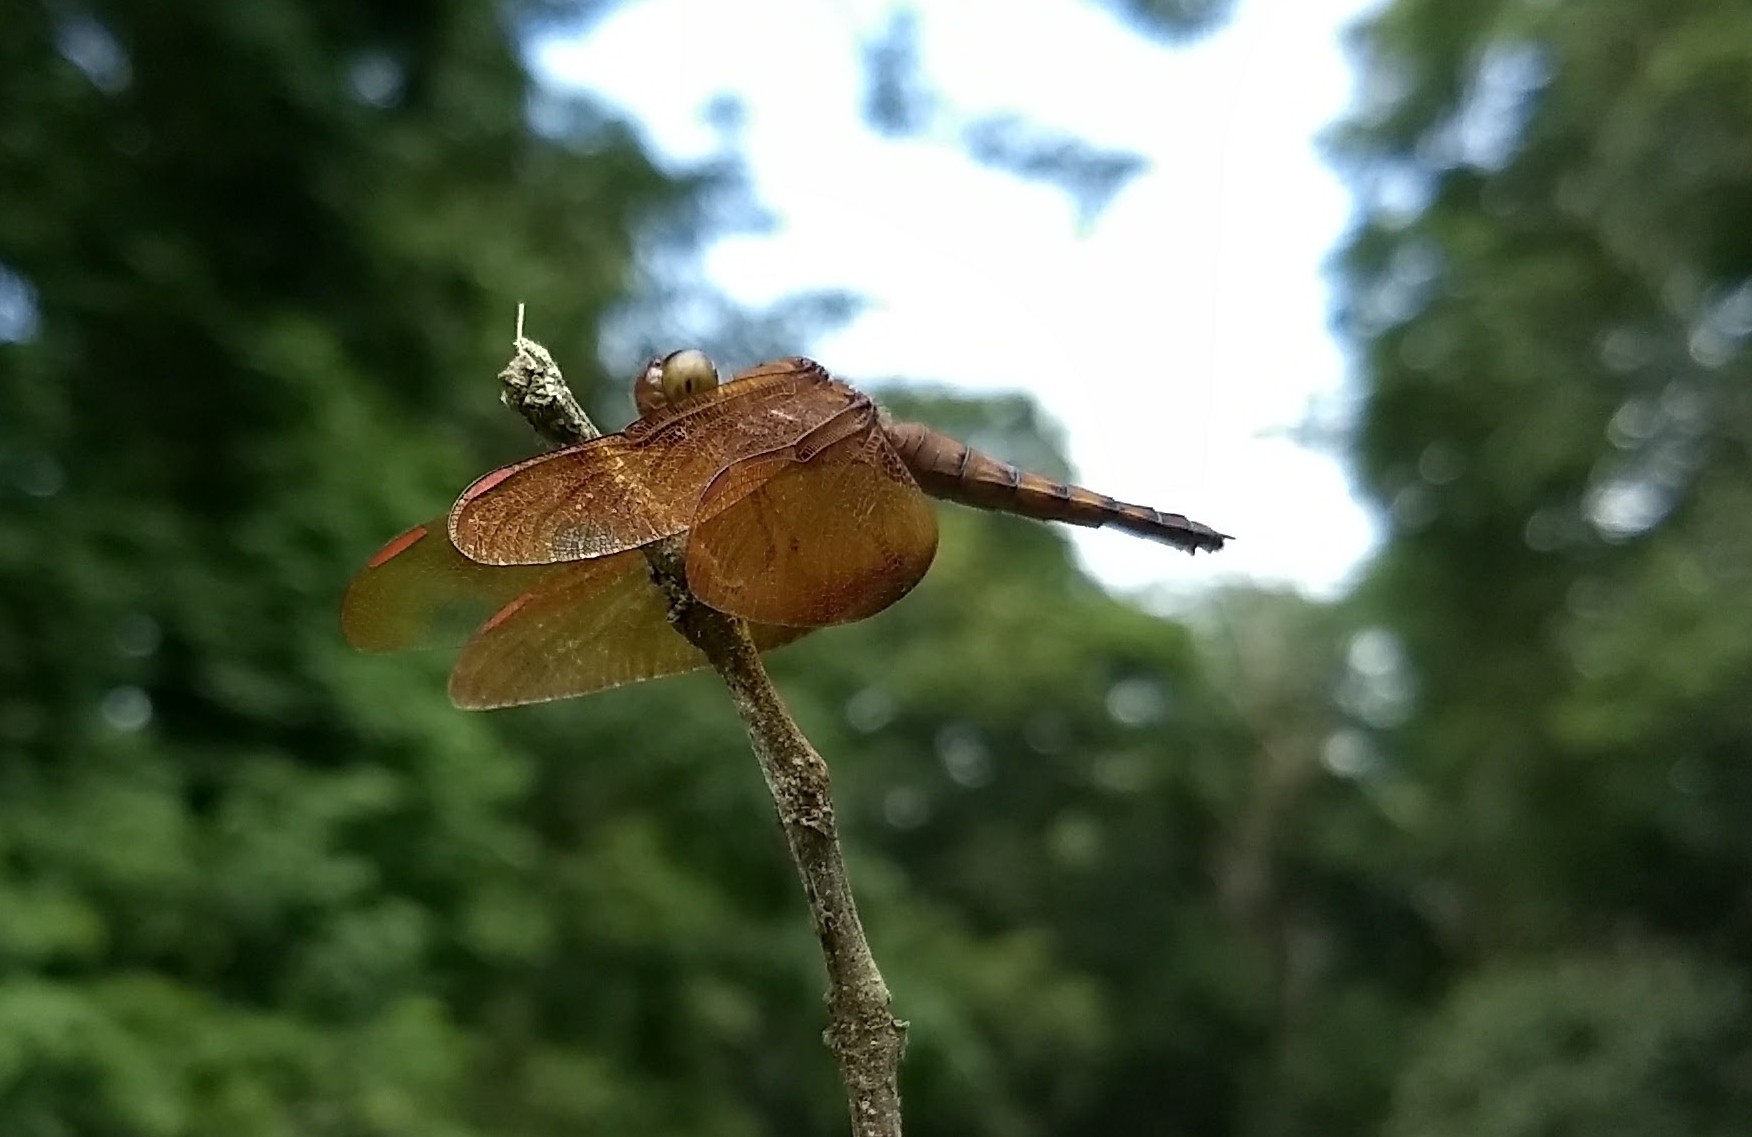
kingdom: Animalia
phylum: Arthropoda
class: Insecta
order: Odonata
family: Libellulidae
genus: Neurothemis
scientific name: Neurothemis fulvia
